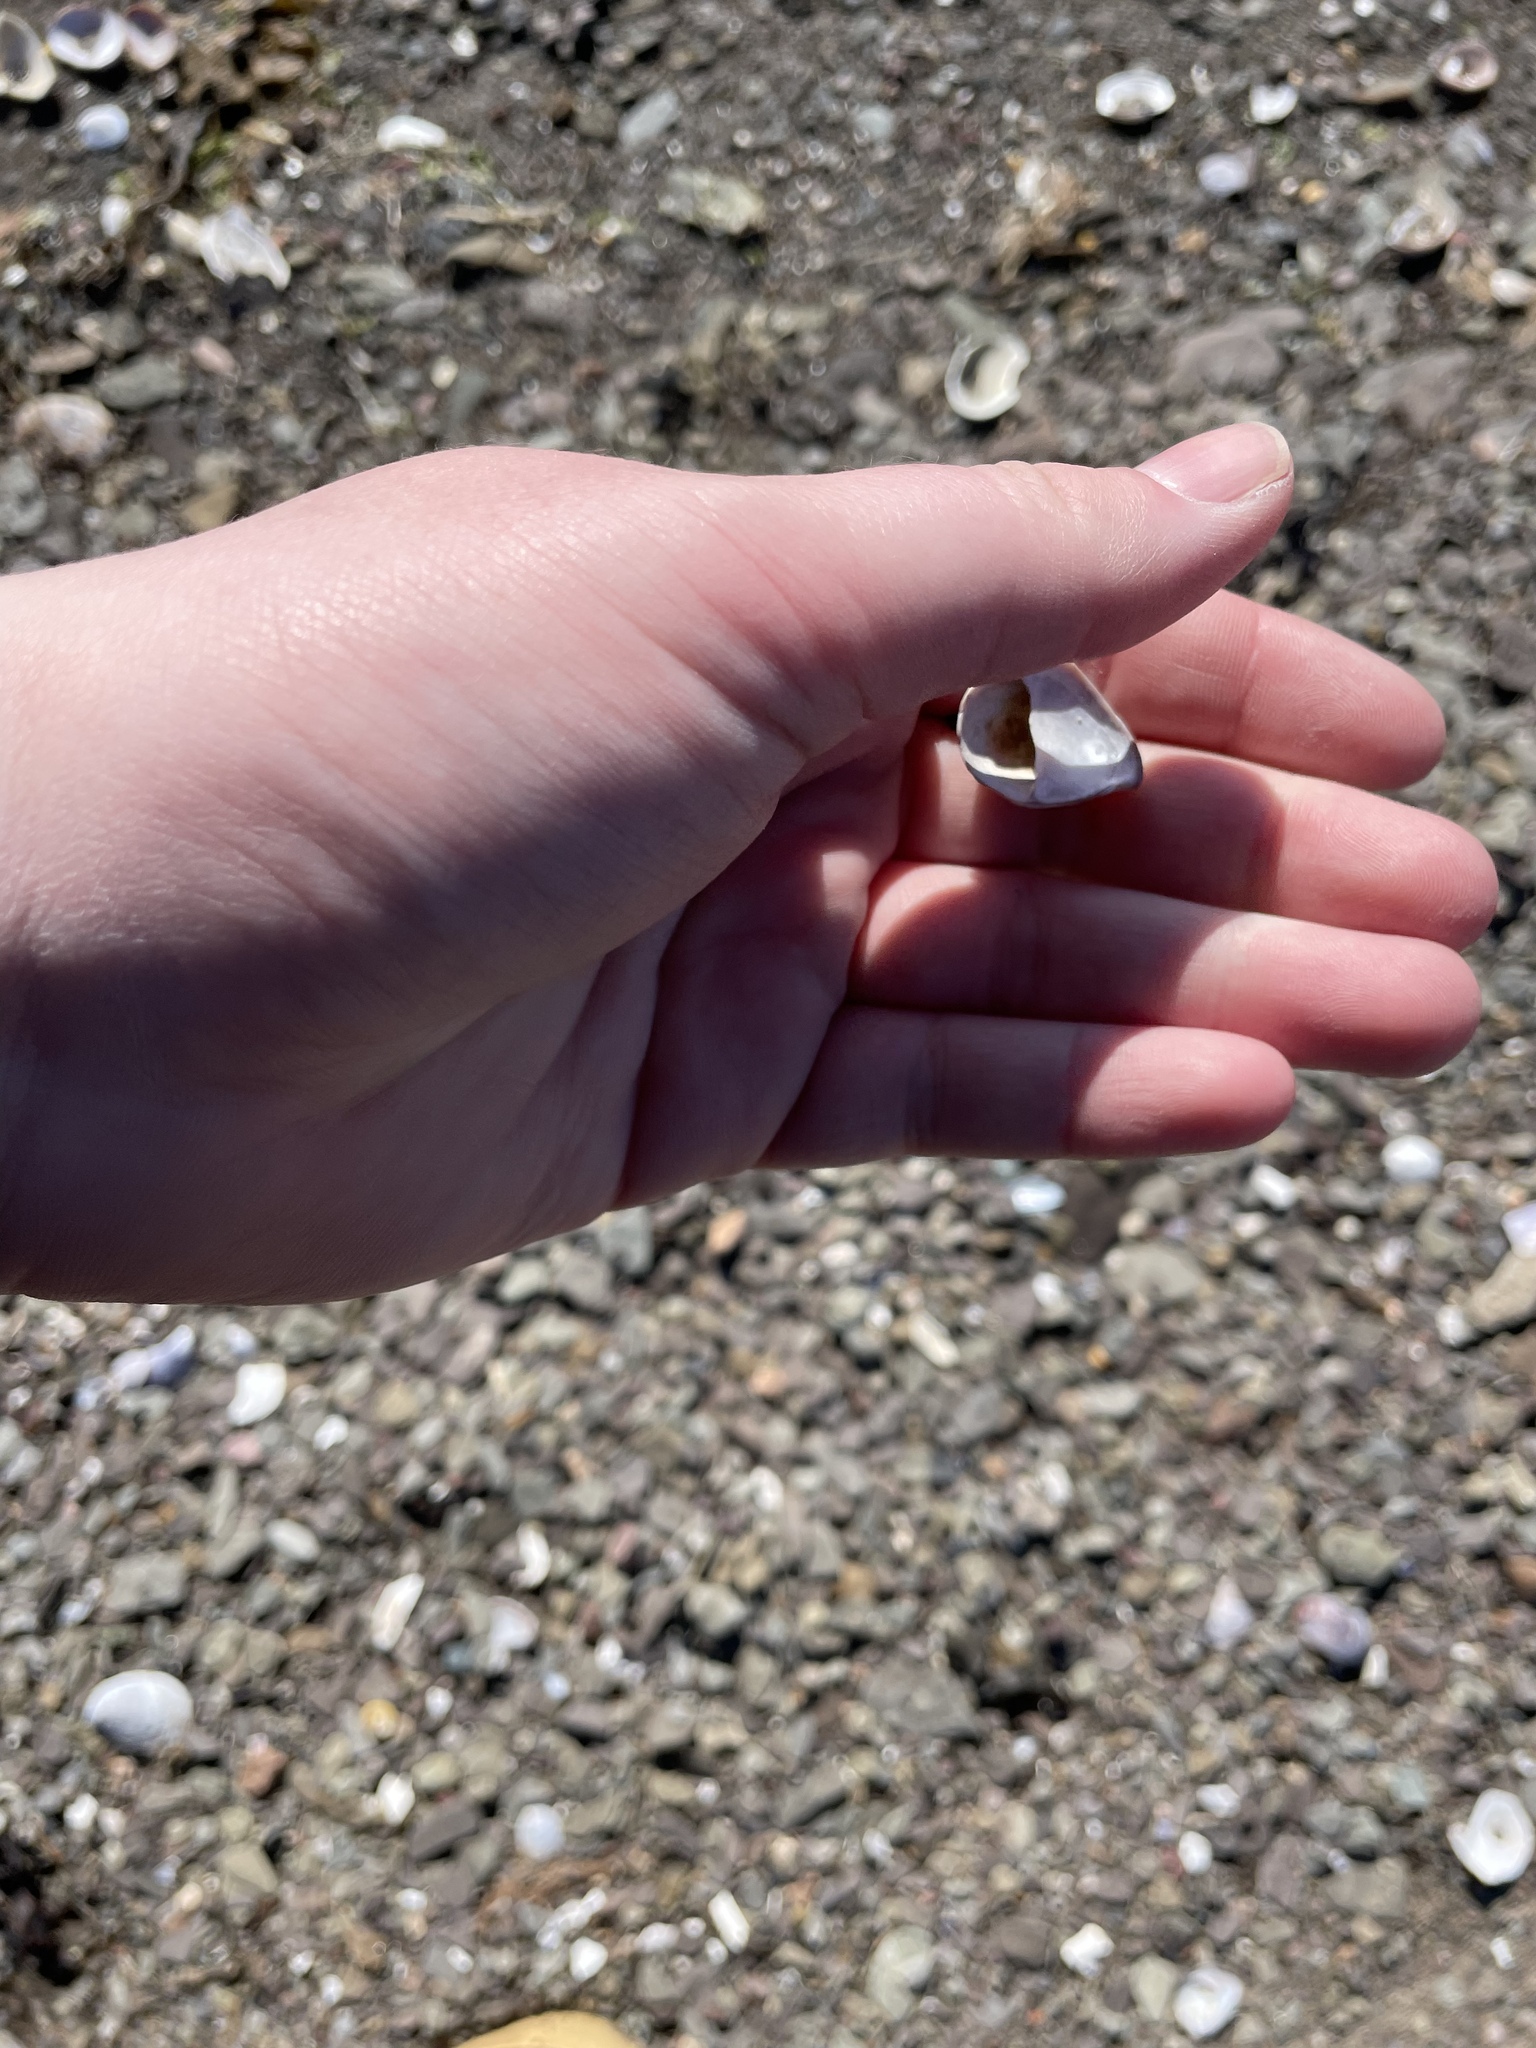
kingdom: Animalia
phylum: Mollusca
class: Gastropoda
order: Littorinimorpha
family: Calyptraeidae
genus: Crepidula
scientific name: Crepidula fornicata
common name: Slipper limpet
